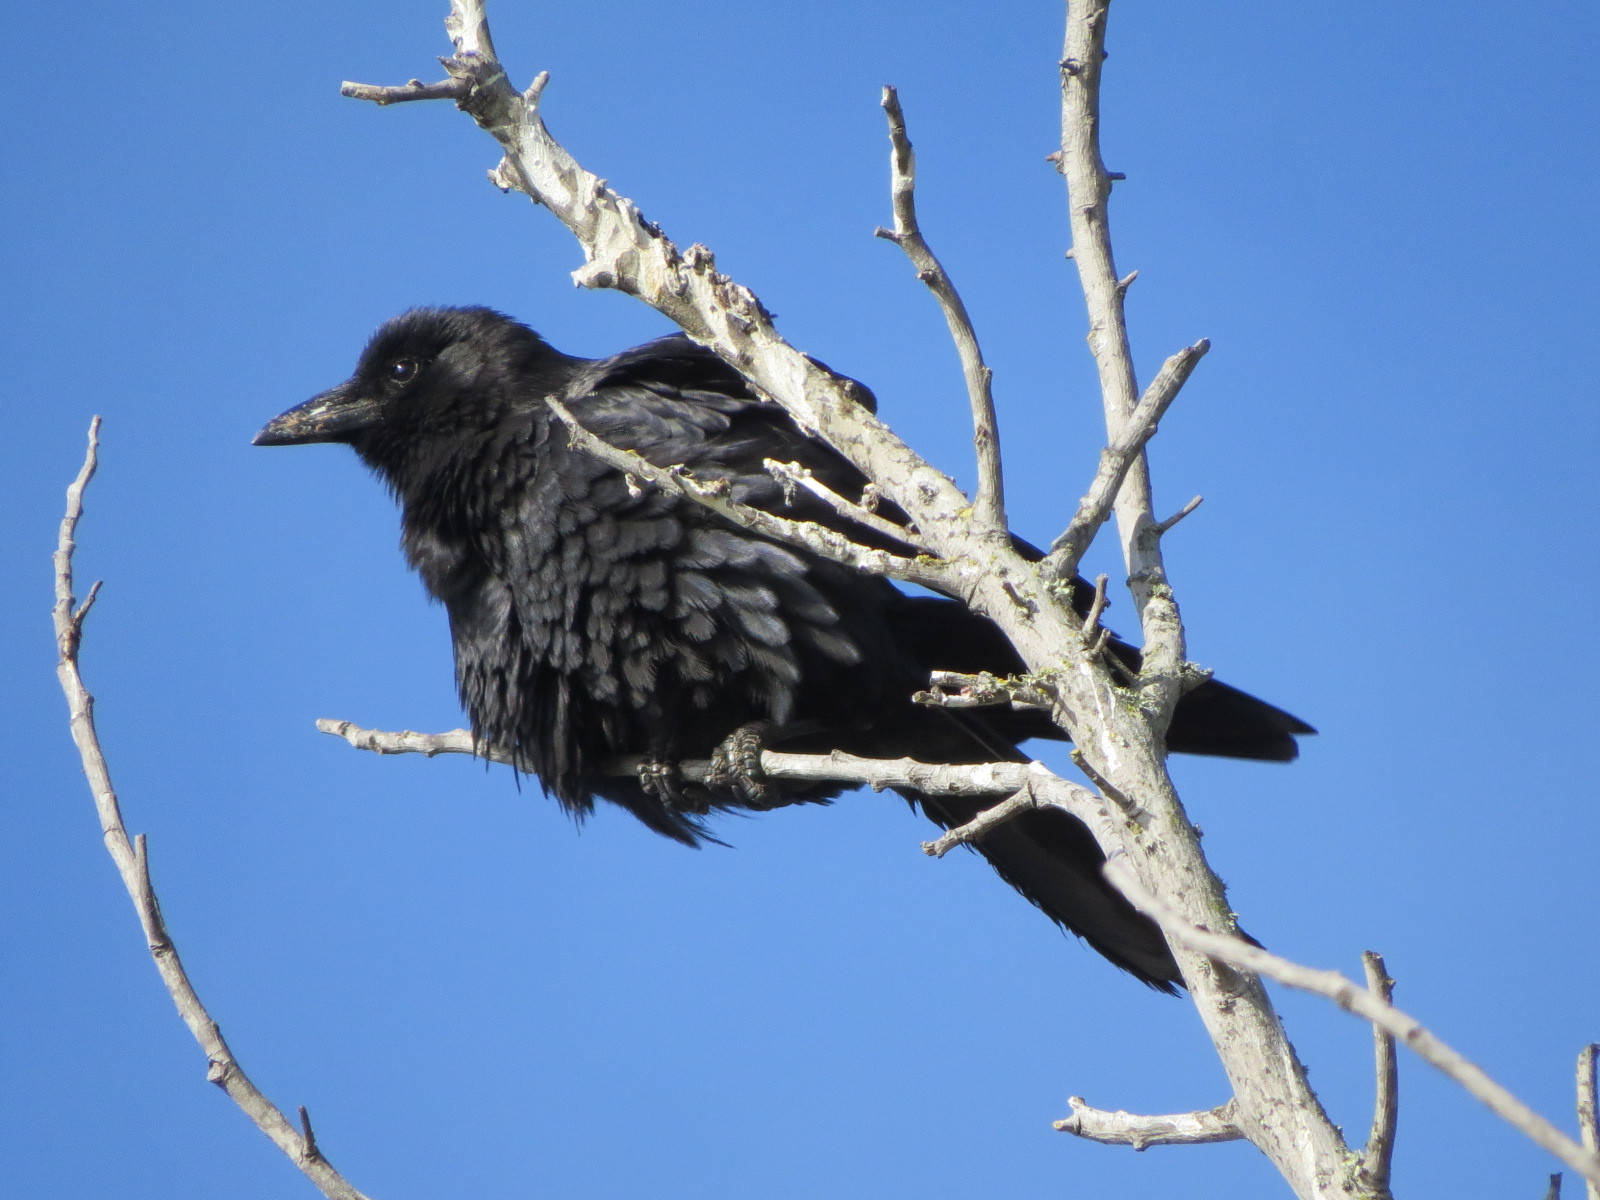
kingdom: Animalia
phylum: Chordata
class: Aves
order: Passeriformes
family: Corvidae
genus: Corvus
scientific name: Corvus brachyrhynchos
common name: American crow
